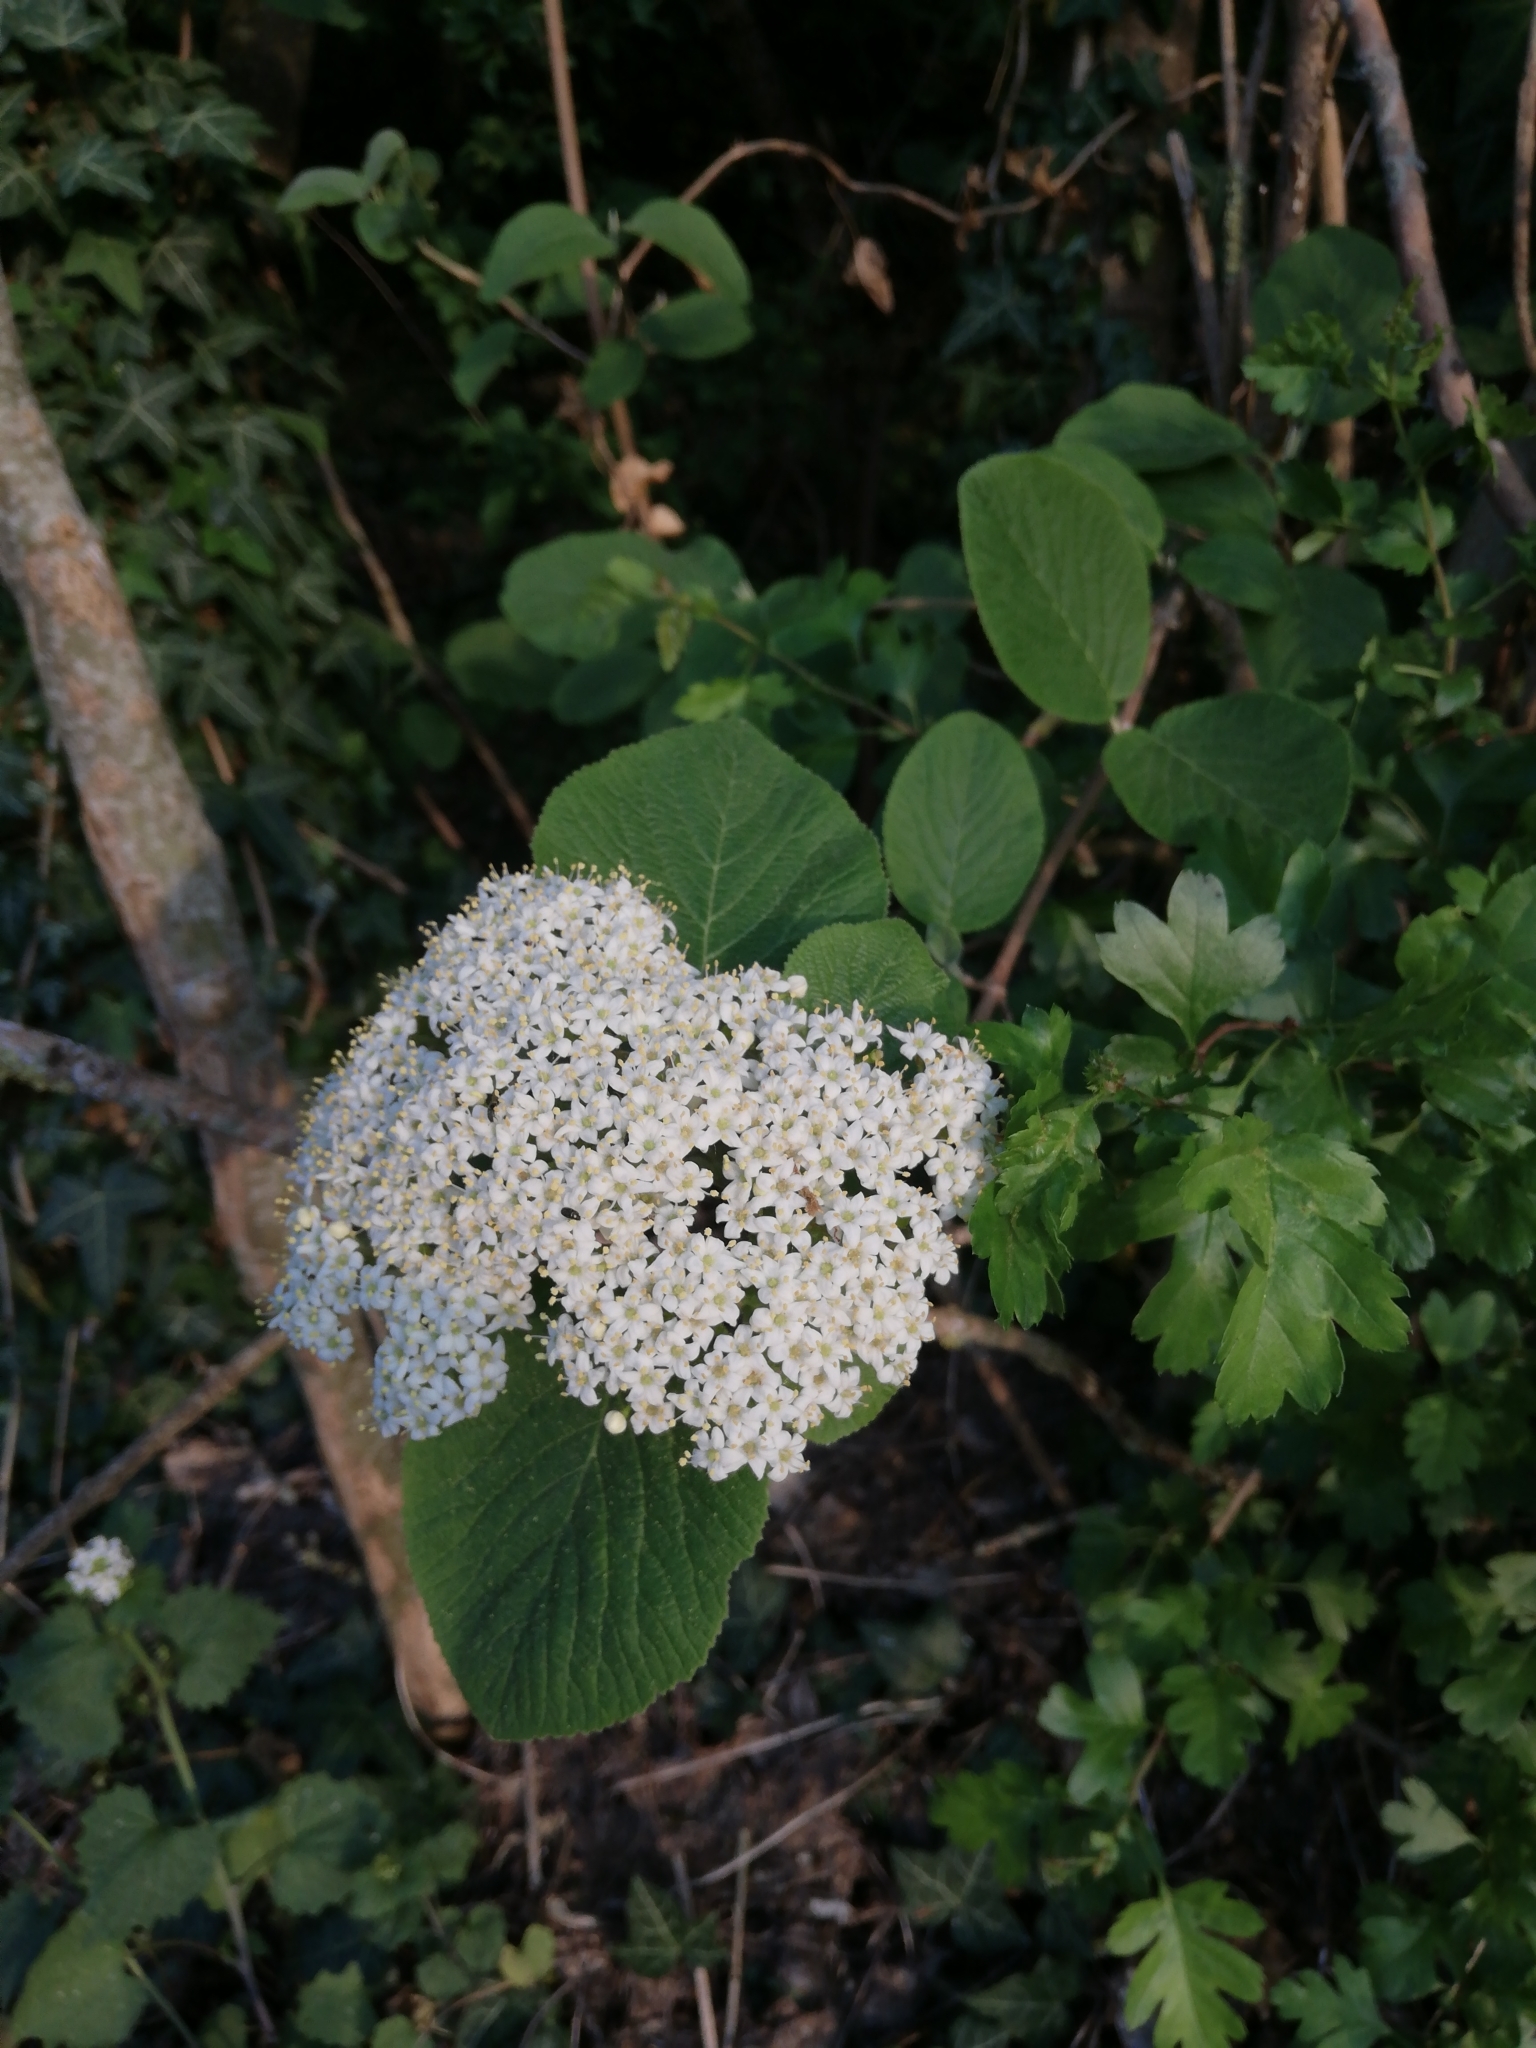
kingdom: Plantae
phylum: Tracheophyta
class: Magnoliopsida
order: Dipsacales
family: Viburnaceae
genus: Viburnum
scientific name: Viburnum lantana
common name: Wayfaring tree
